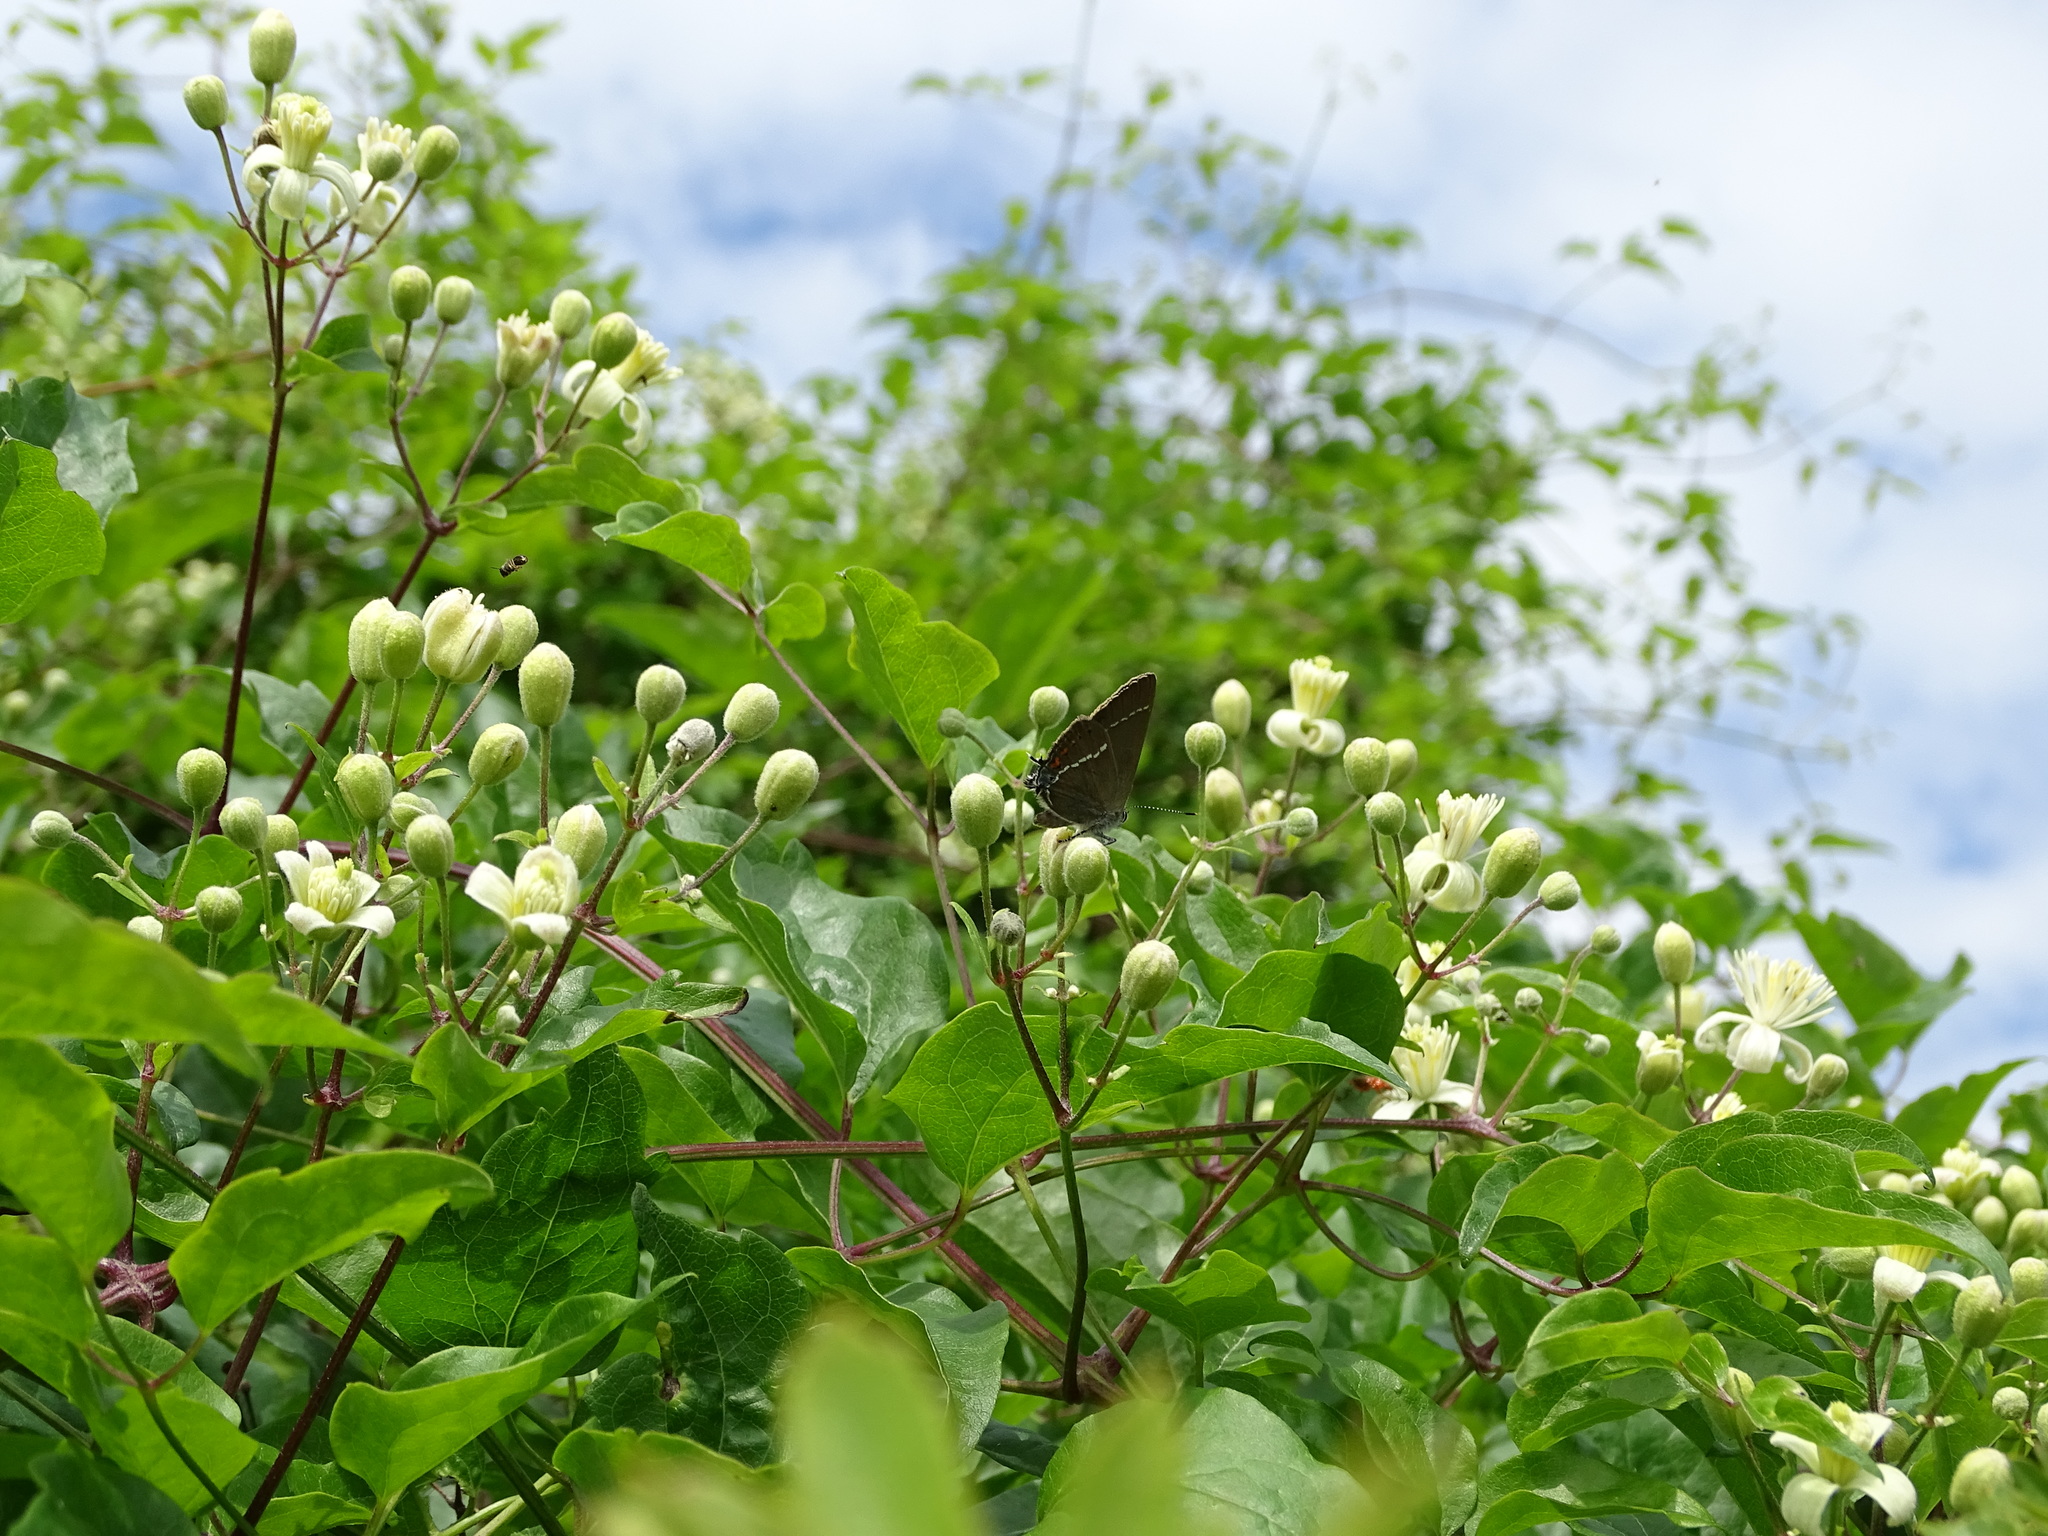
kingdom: Animalia
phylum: Arthropoda
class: Insecta
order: Lepidoptera
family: Lycaenidae
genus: Tuttiola
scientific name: Tuttiola spini
